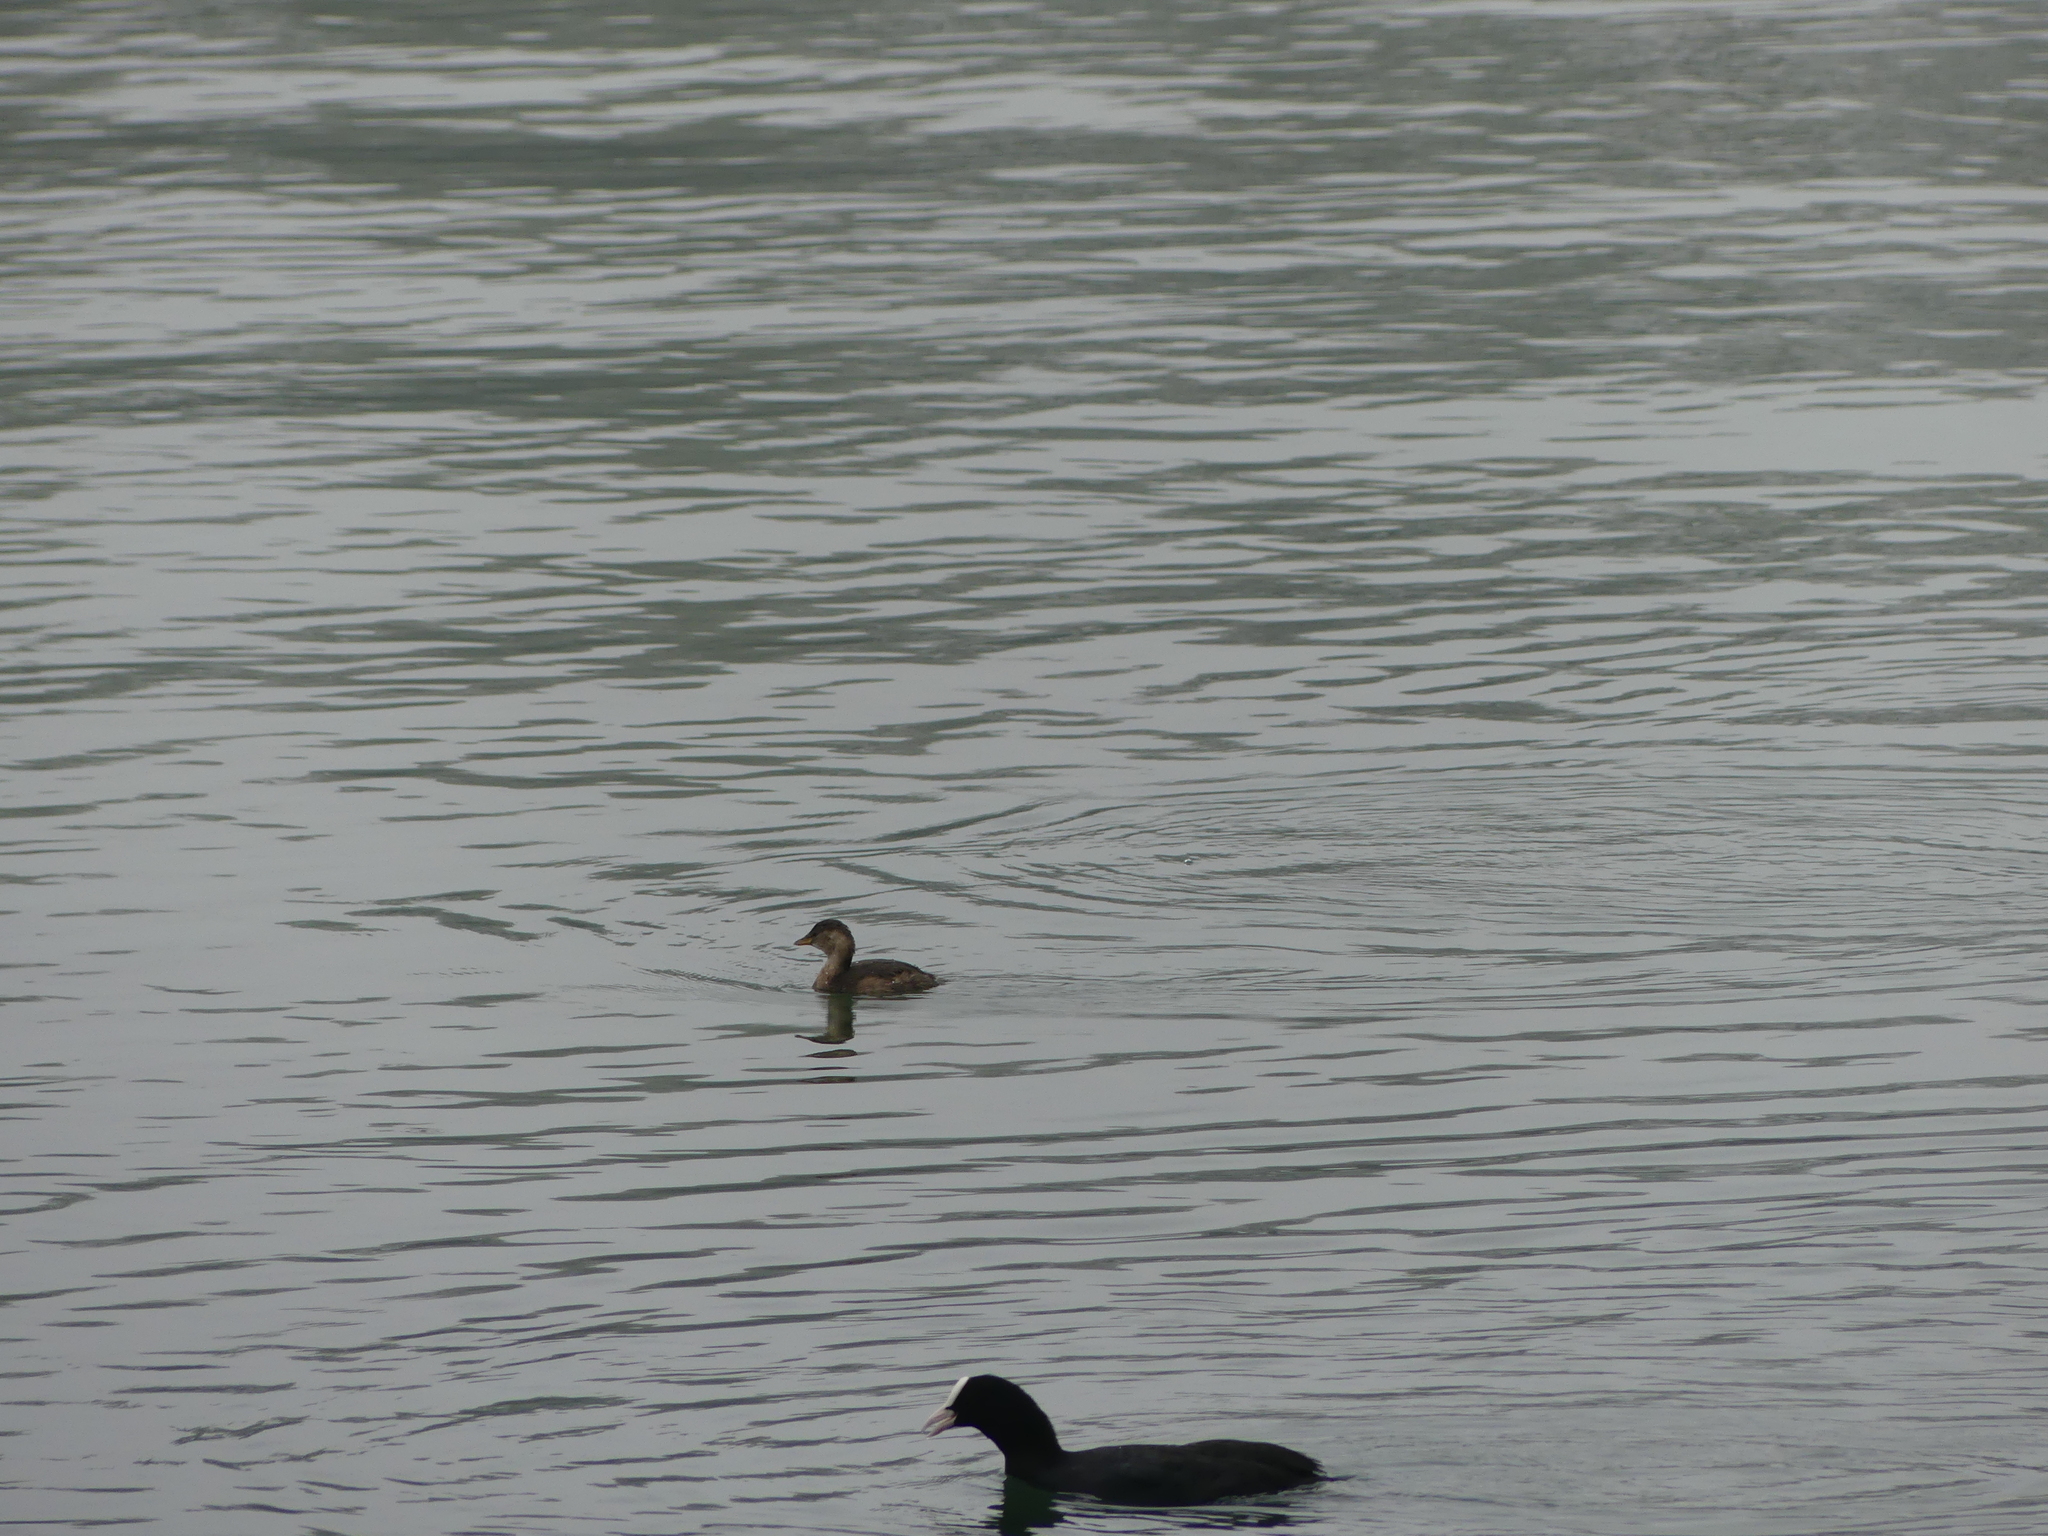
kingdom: Animalia
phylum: Chordata
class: Aves
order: Gruiformes
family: Rallidae
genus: Fulica
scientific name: Fulica atra
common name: Eurasian coot
